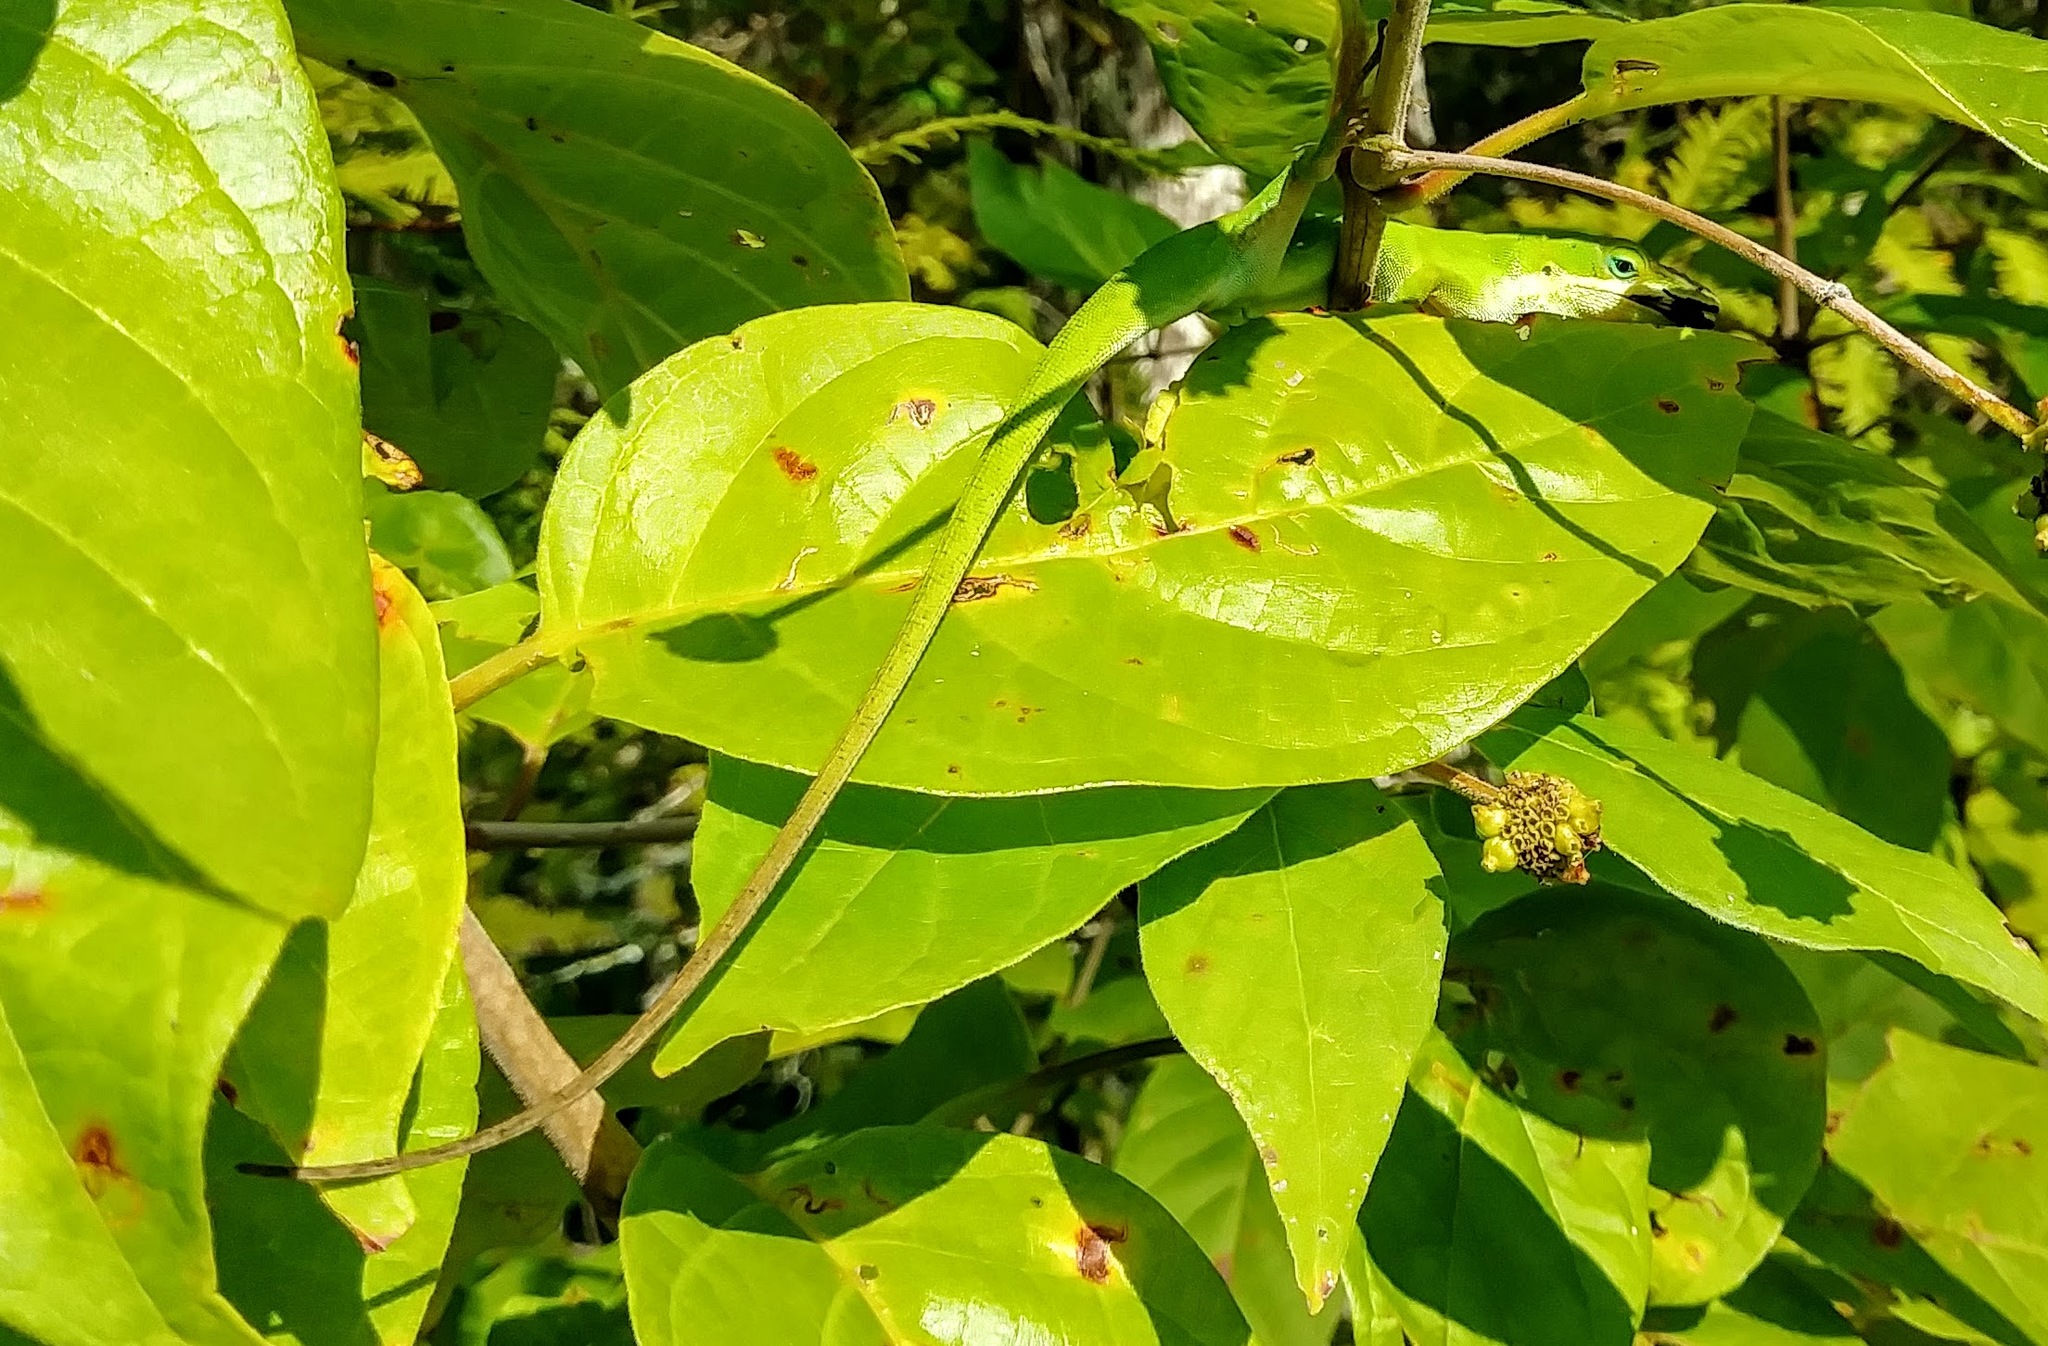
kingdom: Animalia
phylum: Chordata
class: Squamata
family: Dactyloidae
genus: Anolis
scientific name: Anolis carolinensis
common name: Green anole
